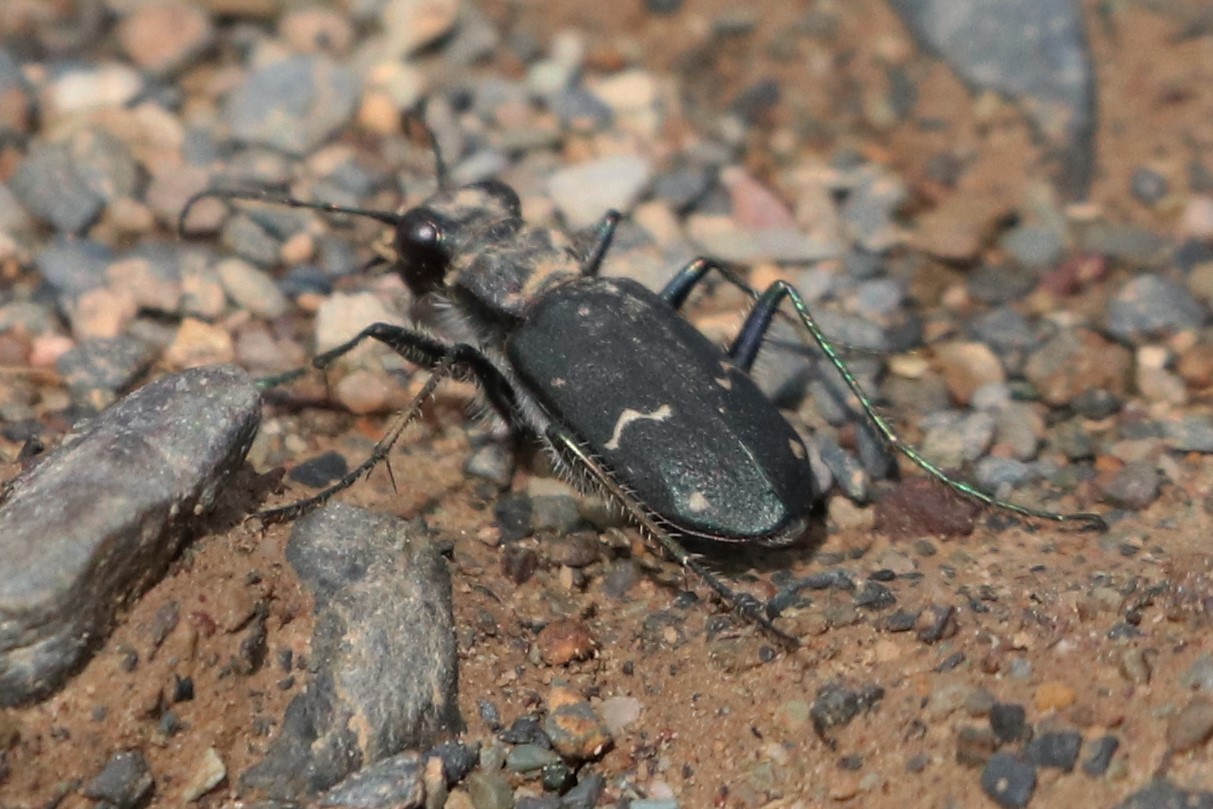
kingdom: Animalia
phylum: Arthropoda
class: Insecta
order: Coleoptera
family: Carabidae
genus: Cicindela
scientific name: Cicindela longilabris
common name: Boreal long-lipped tiger beetle
